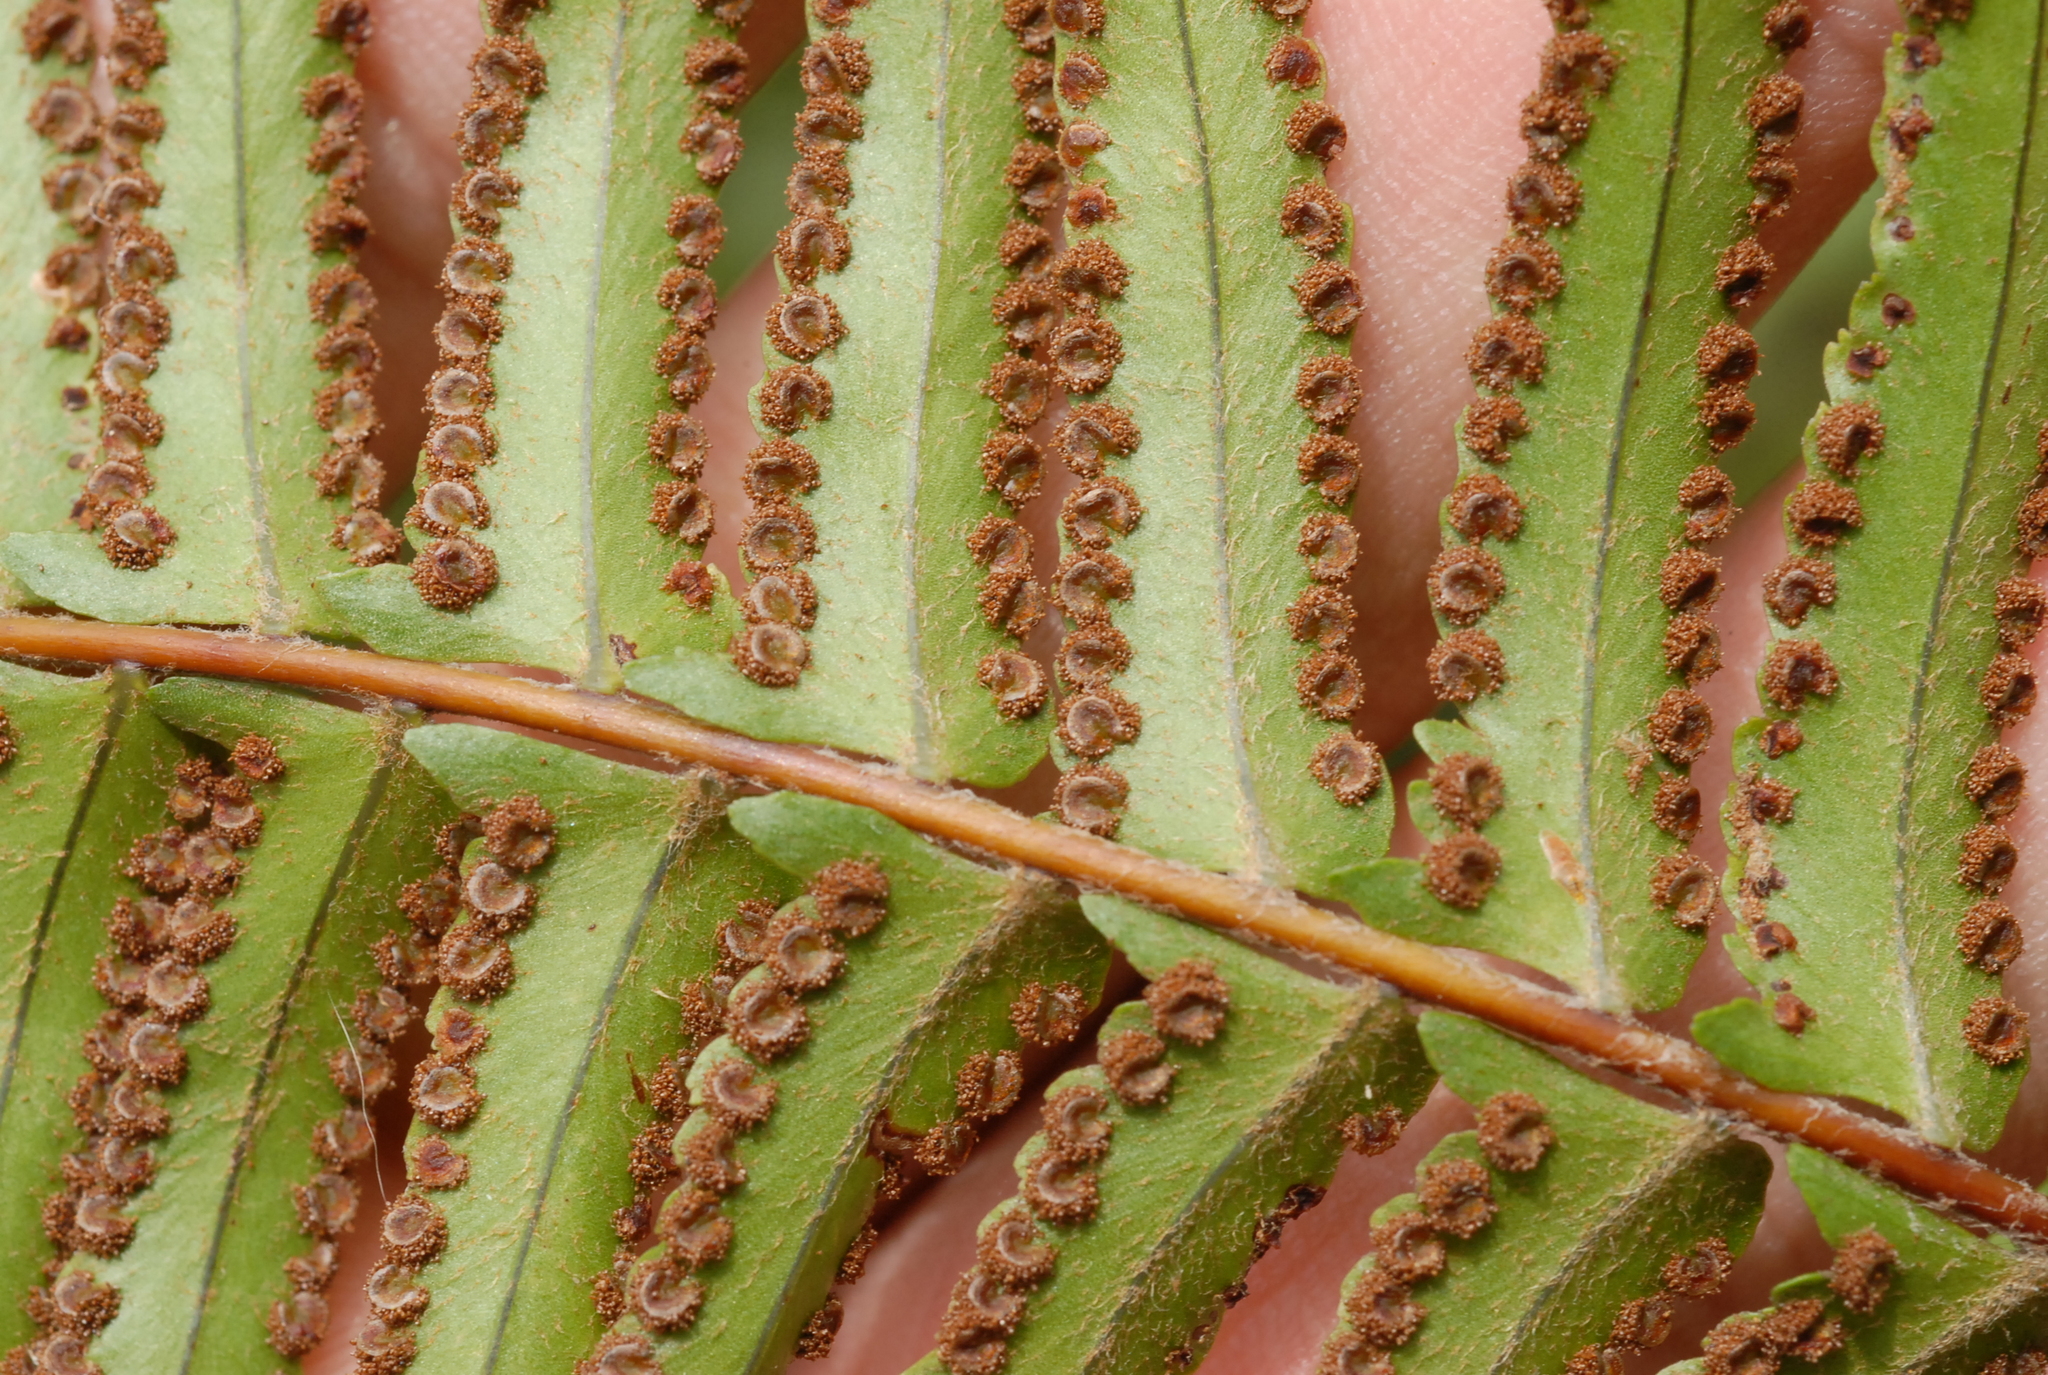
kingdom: Plantae
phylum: Tracheophyta
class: Polypodiopsida
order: Polypodiales
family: Nephrolepidaceae
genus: Nephrolepis
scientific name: Nephrolepis brownii
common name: Asian swordfern
